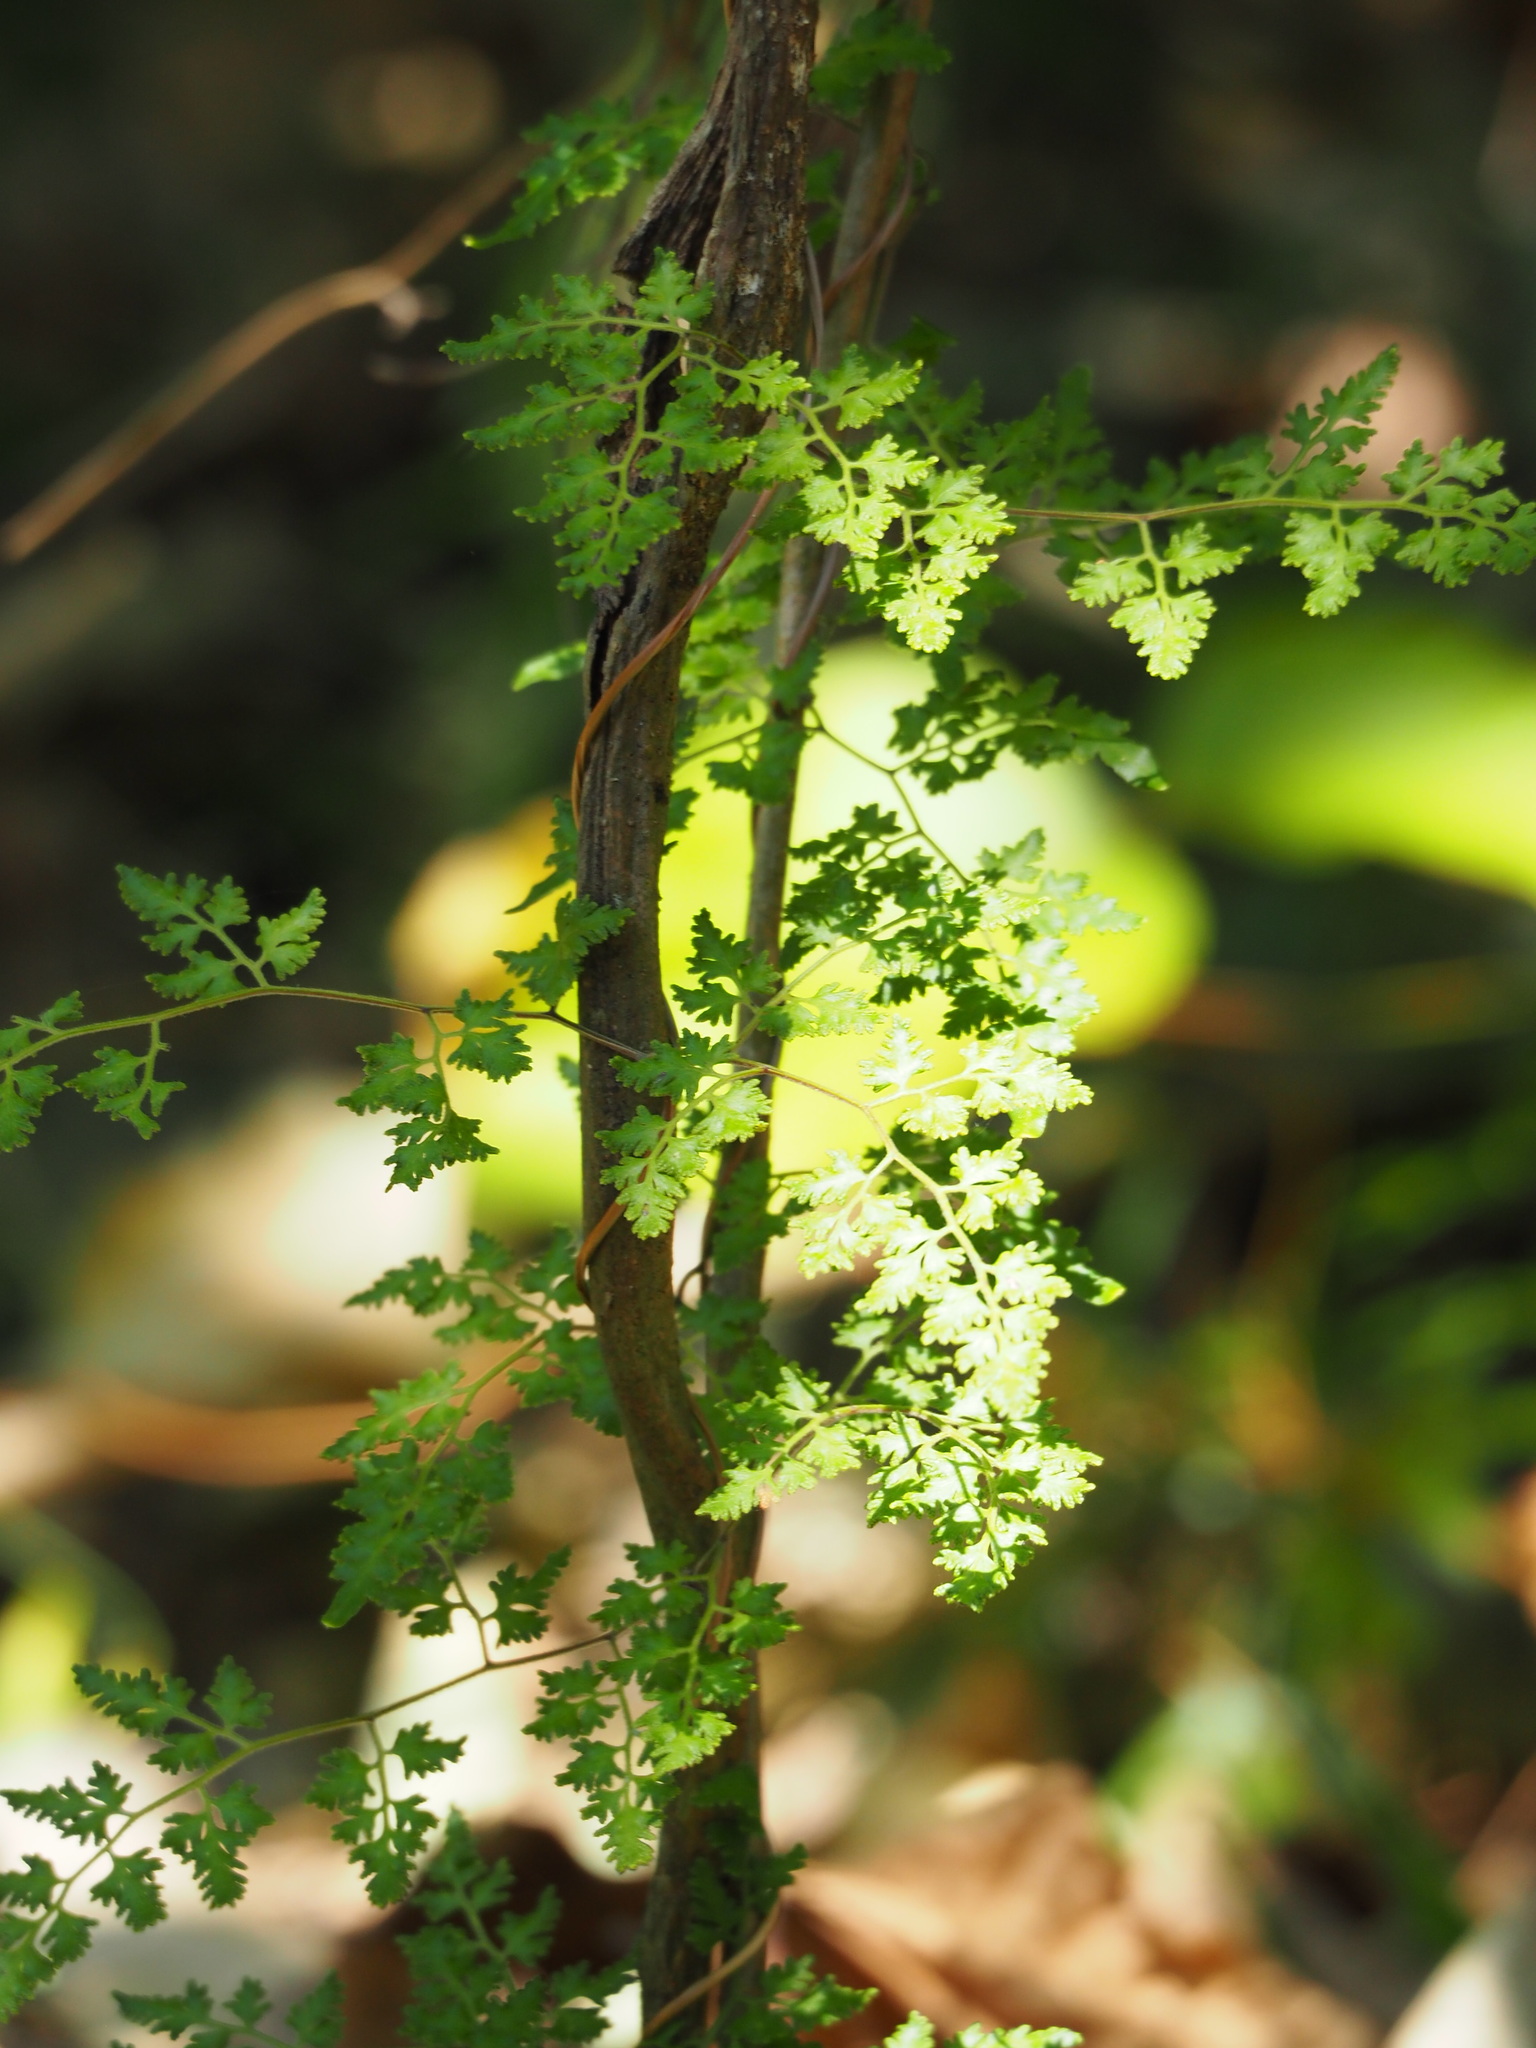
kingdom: Plantae
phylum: Tracheophyta
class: Polypodiopsida
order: Schizaeales
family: Lygodiaceae
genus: Lygodium
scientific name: Lygodium japonicum
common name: Japanese climbing fern
